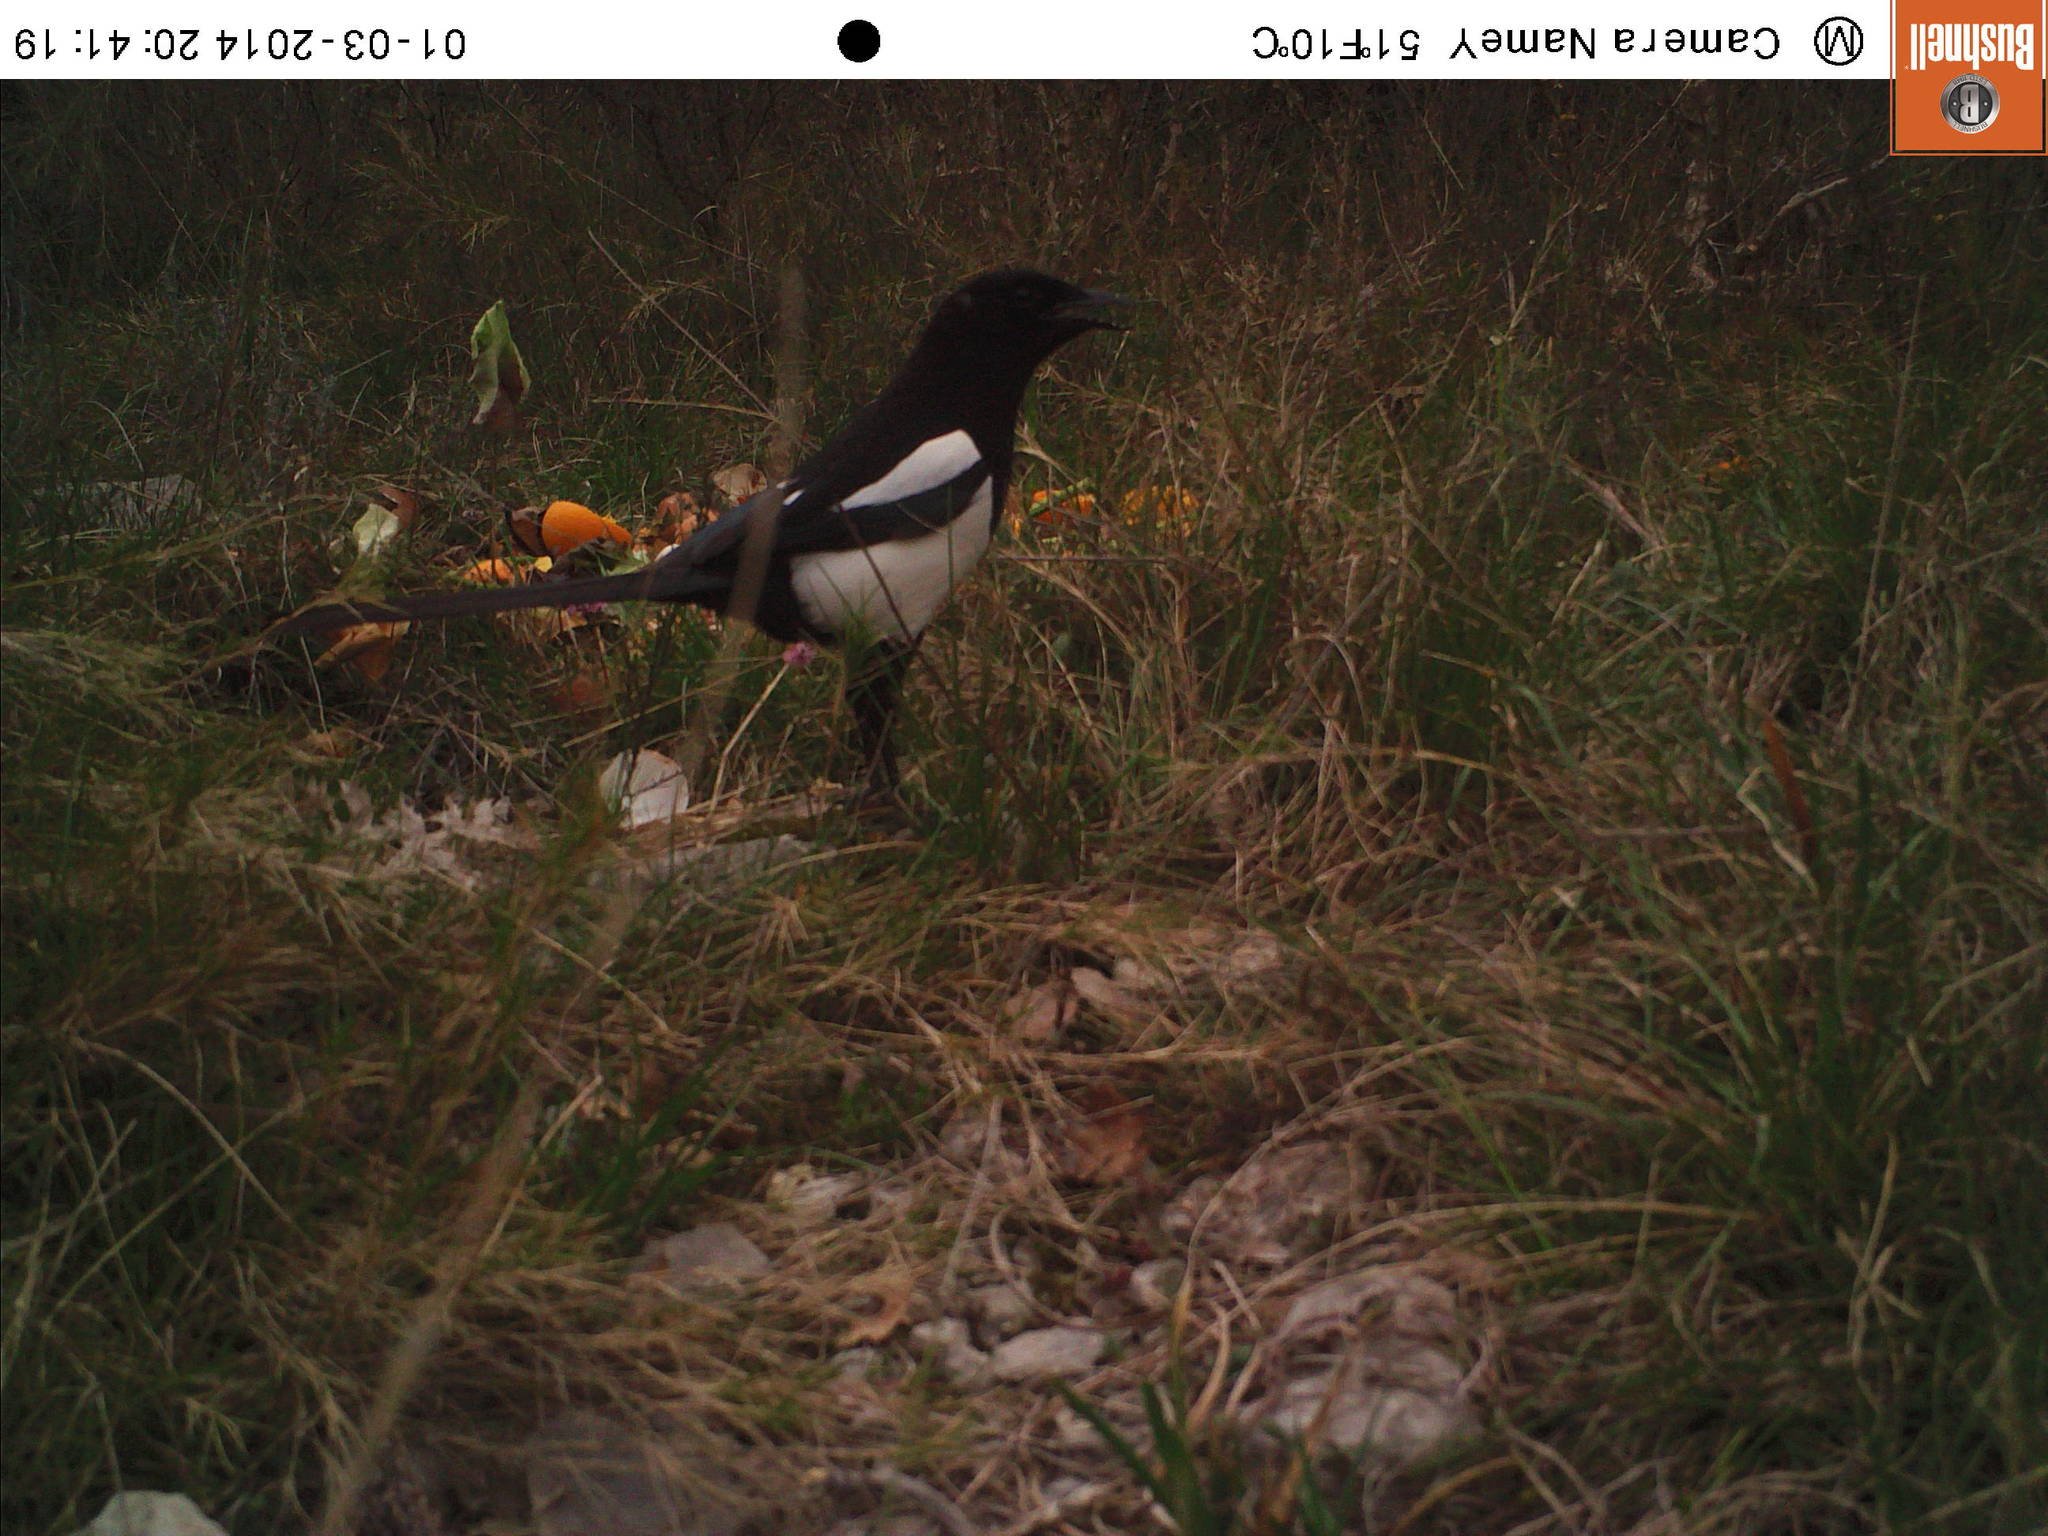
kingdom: Animalia
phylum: Chordata
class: Aves
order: Passeriformes
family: Corvidae
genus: Pica
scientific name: Pica pica
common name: Eurasian magpie
